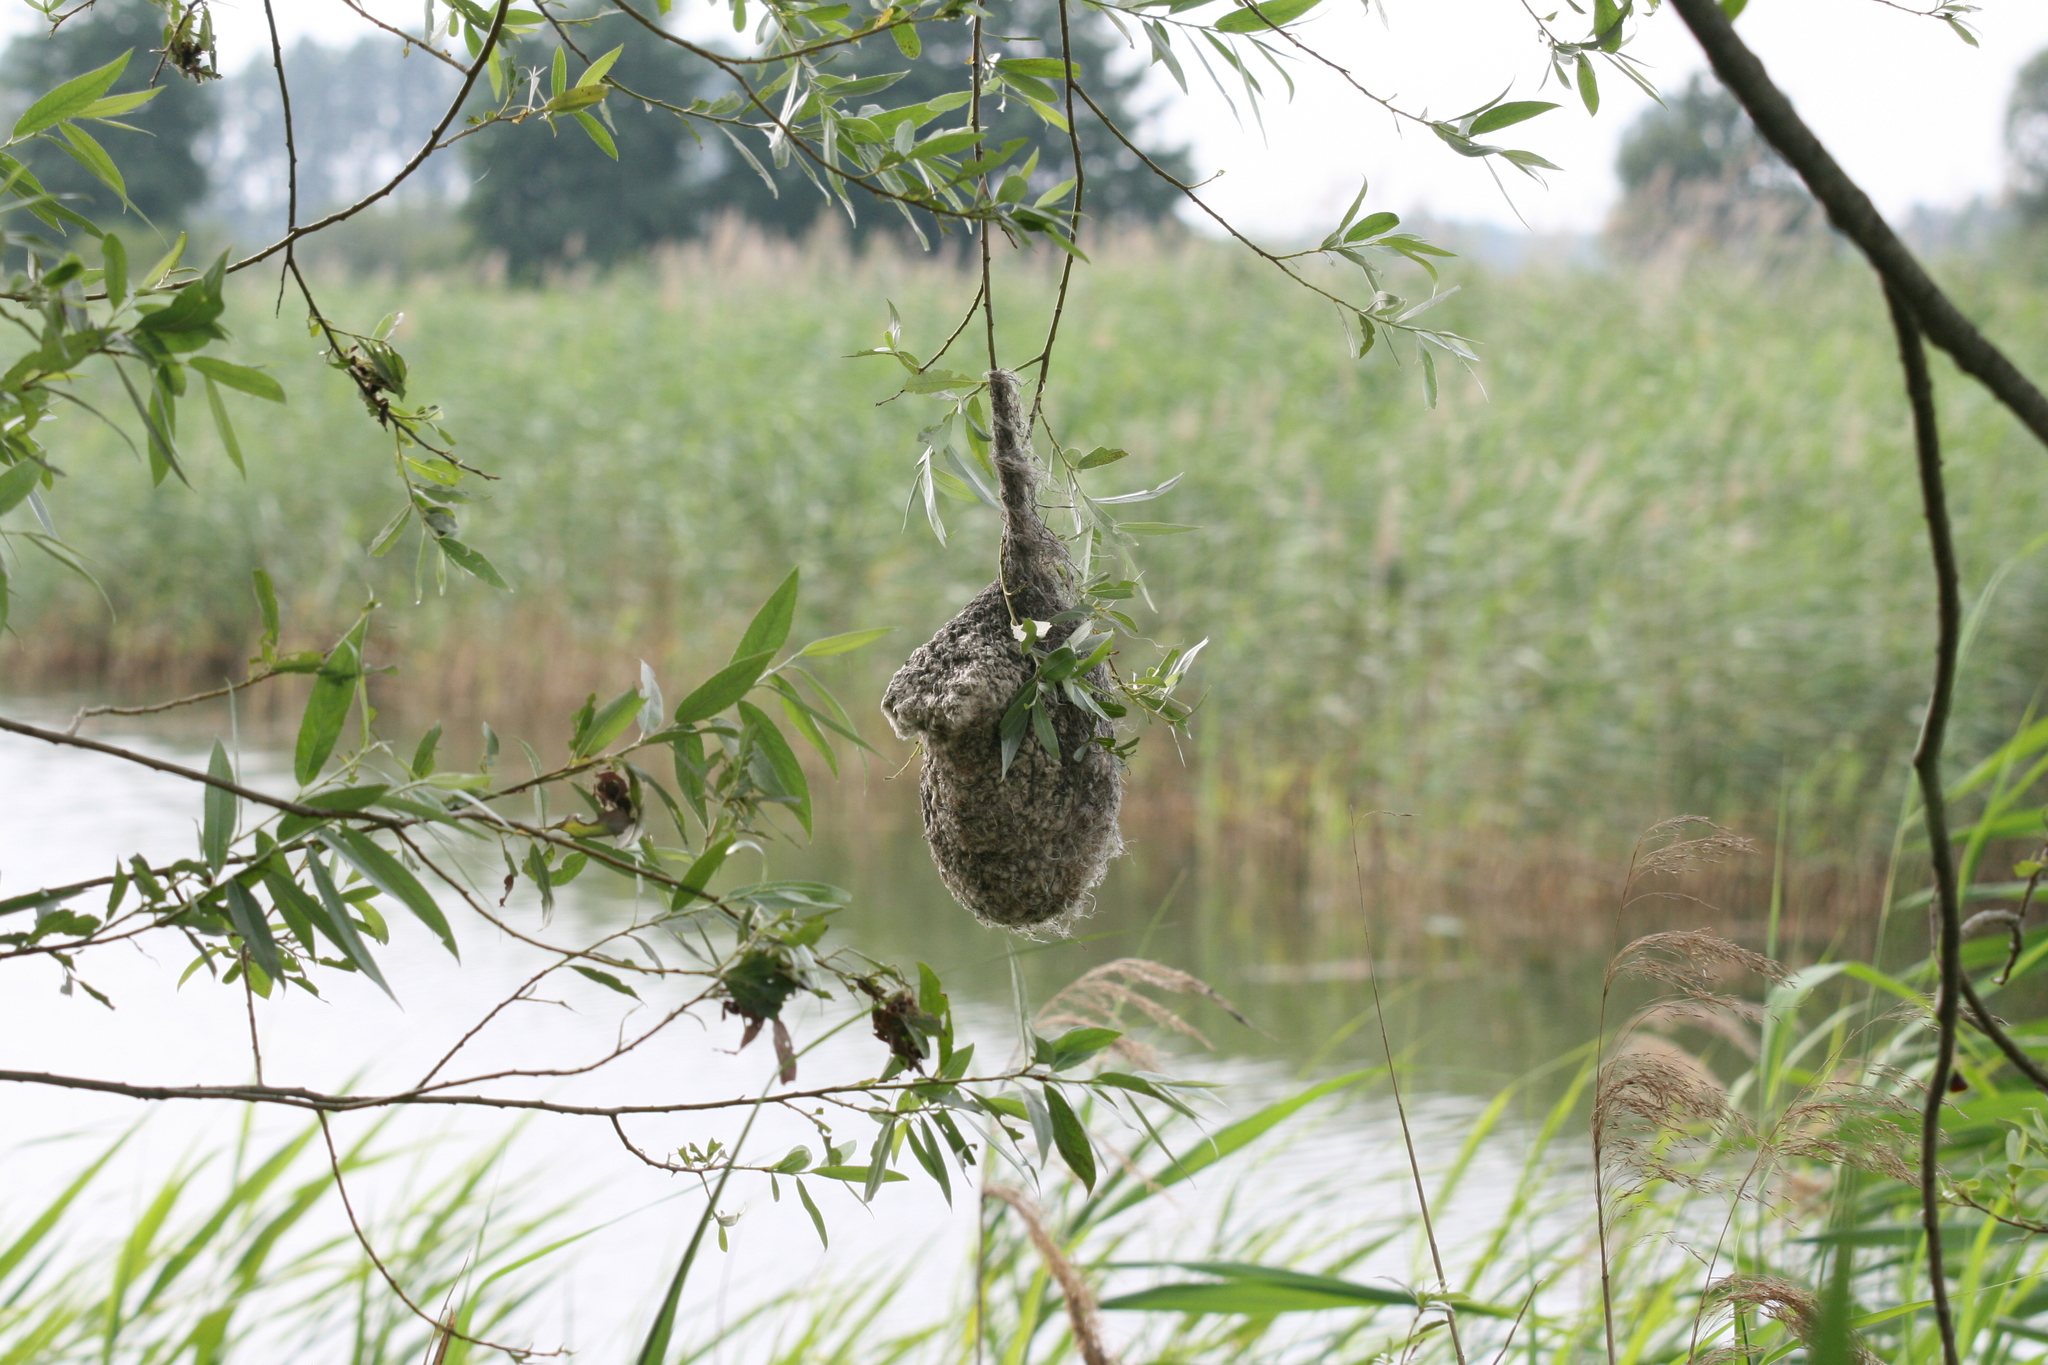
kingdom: Animalia
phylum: Chordata
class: Aves
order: Passeriformes
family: Remizidae
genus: Remiz
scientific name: Remiz pendulinus
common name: Eurasian penduline tit
